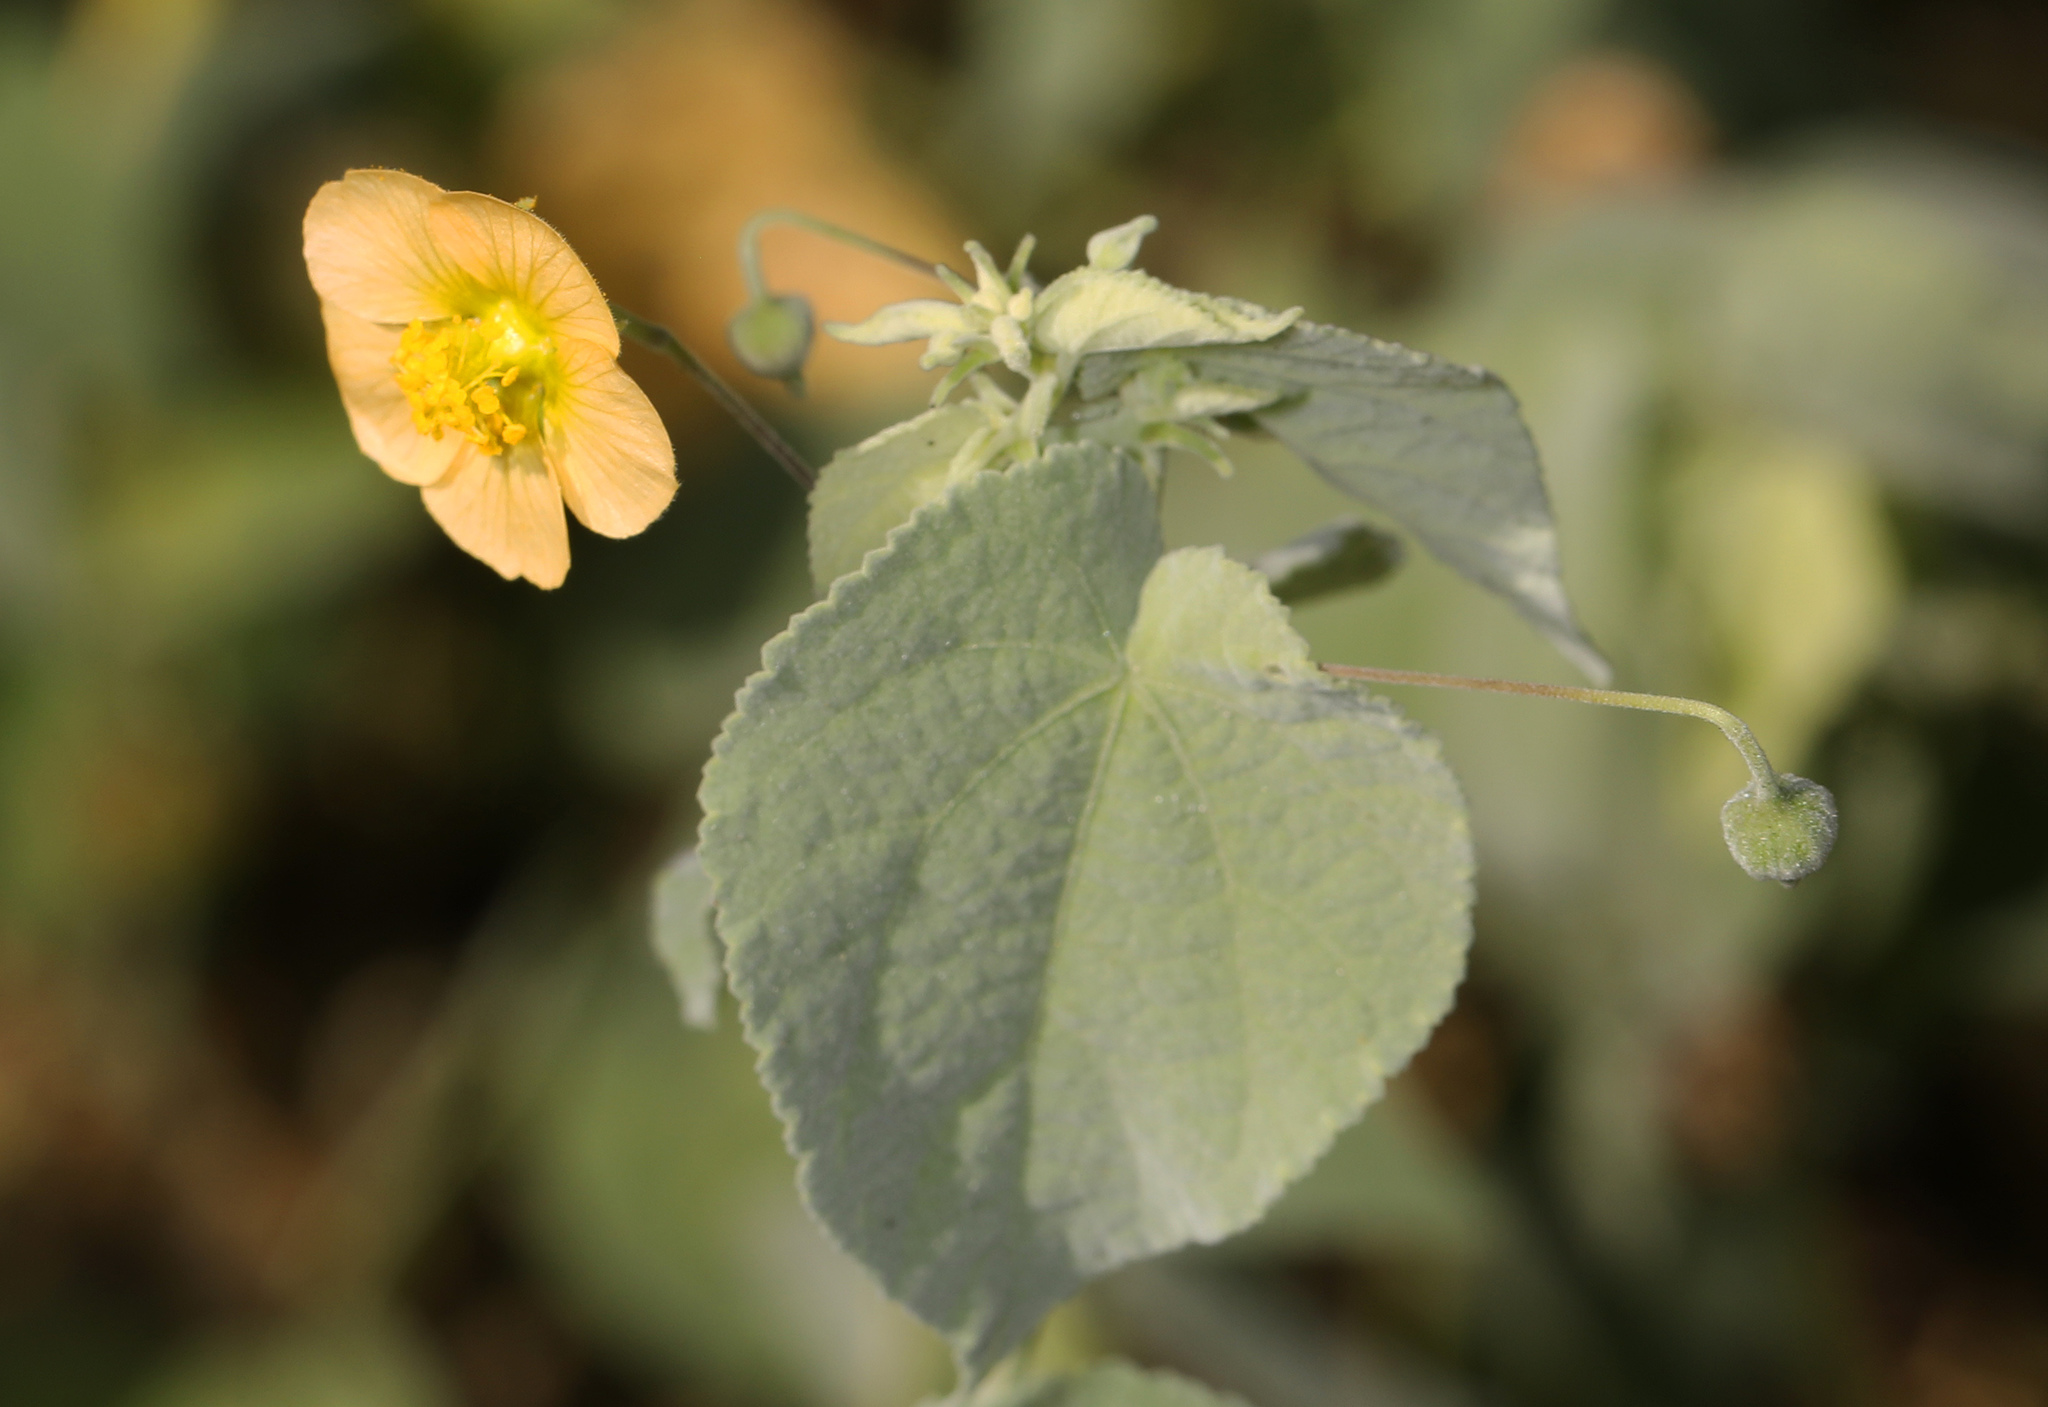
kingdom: Plantae
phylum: Tracheophyta
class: Magnoliopsida
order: Malvales
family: Malvaceae
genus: Herissantia
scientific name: Herissantia crispa
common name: Bladdermallow
